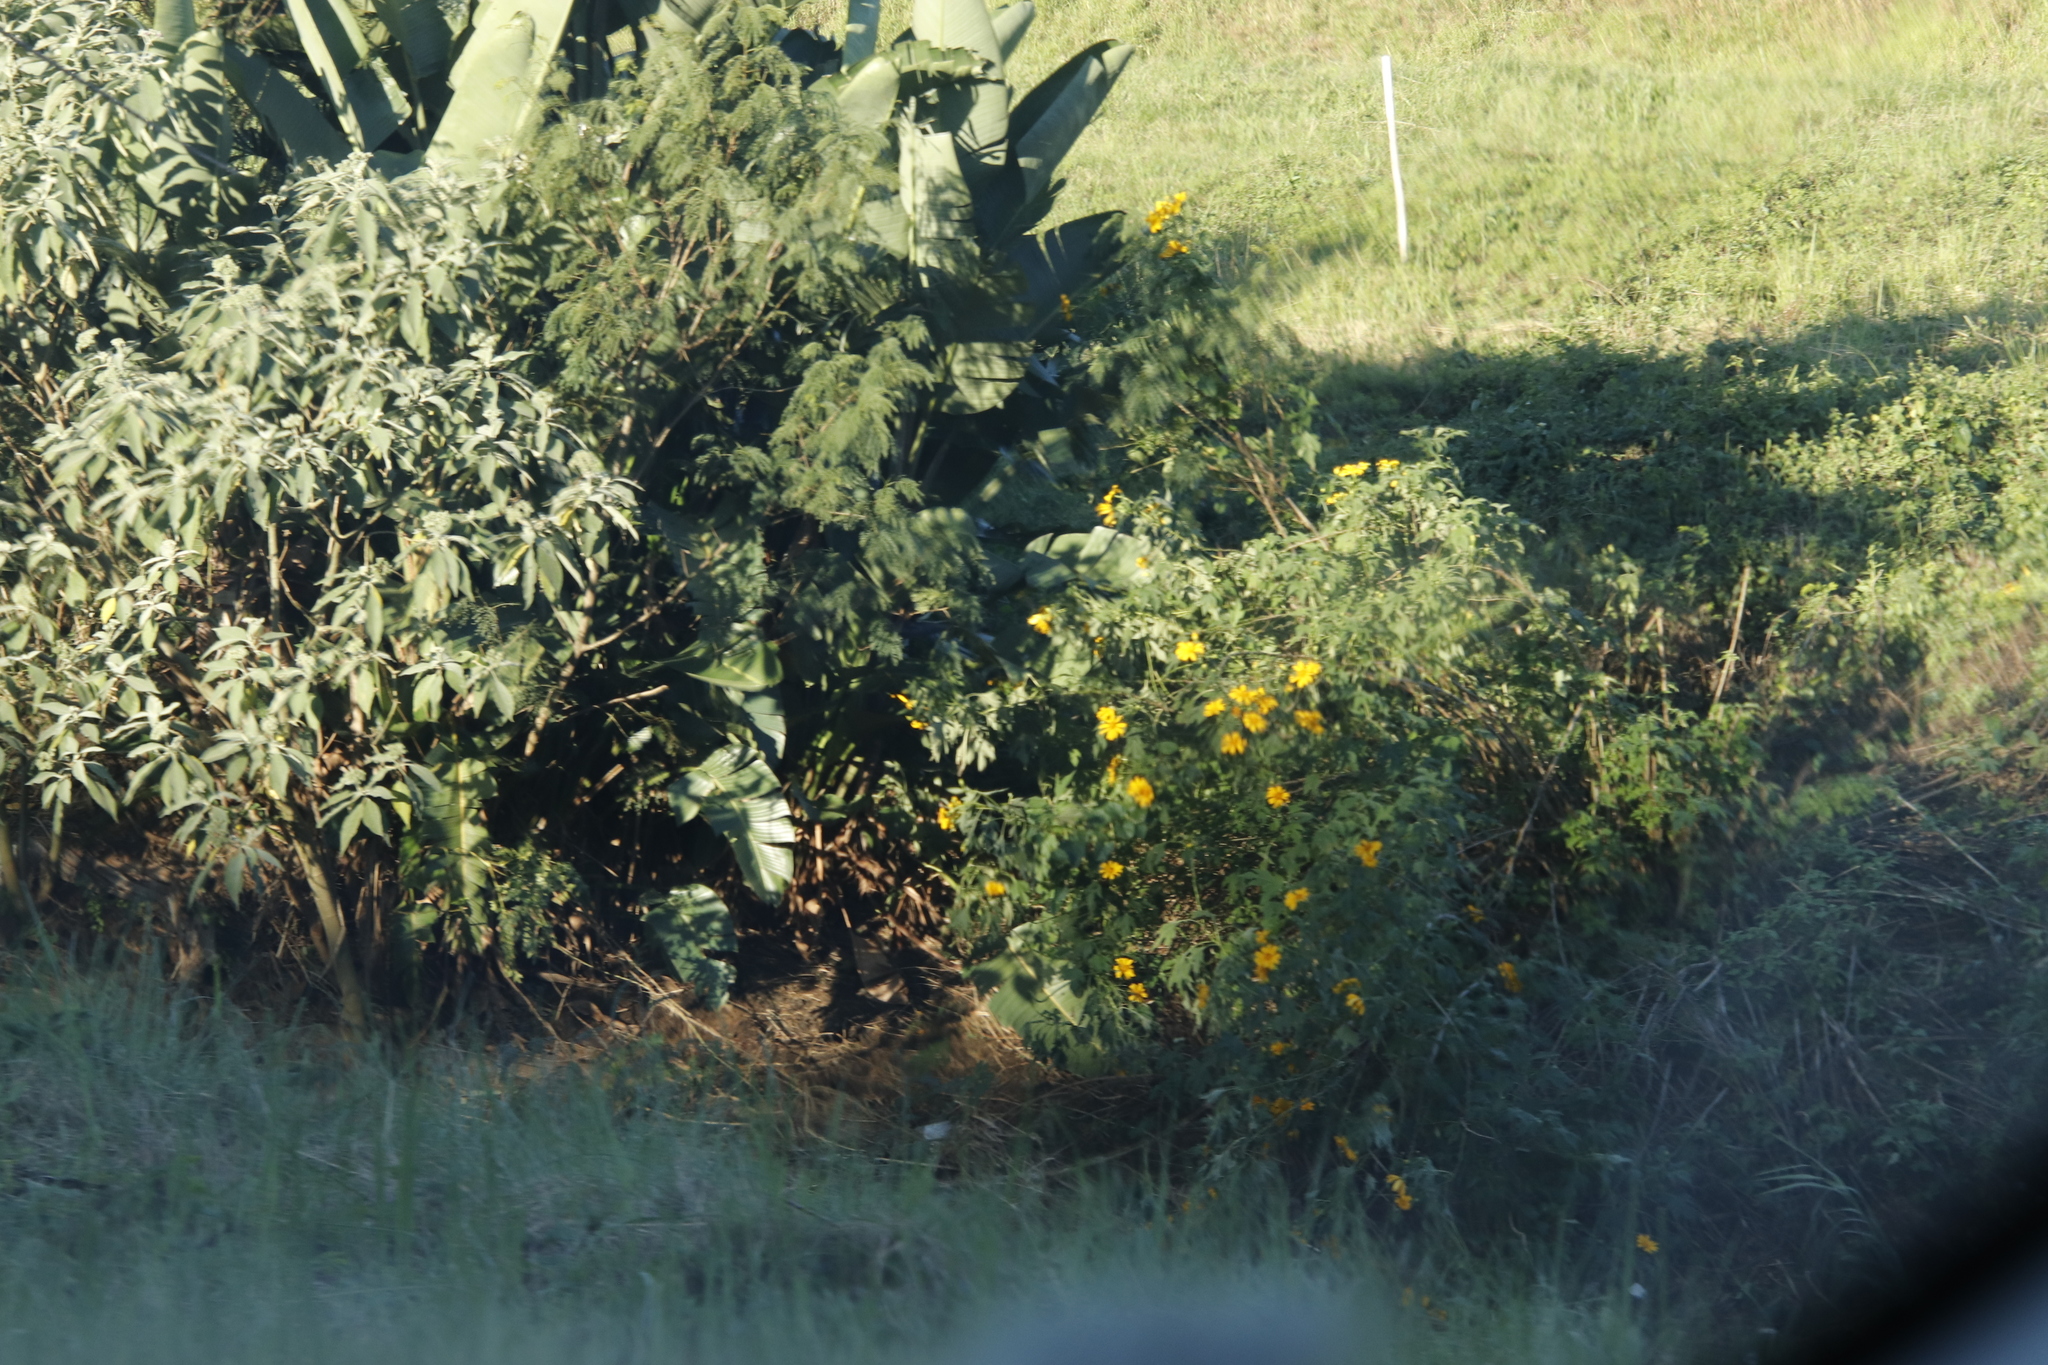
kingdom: Plantae
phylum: Tracheophyta
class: Magnoliopsida
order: Asterales
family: Asteraceae
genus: Tithonia
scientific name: Tithonia diversifolia
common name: Tree marigold
